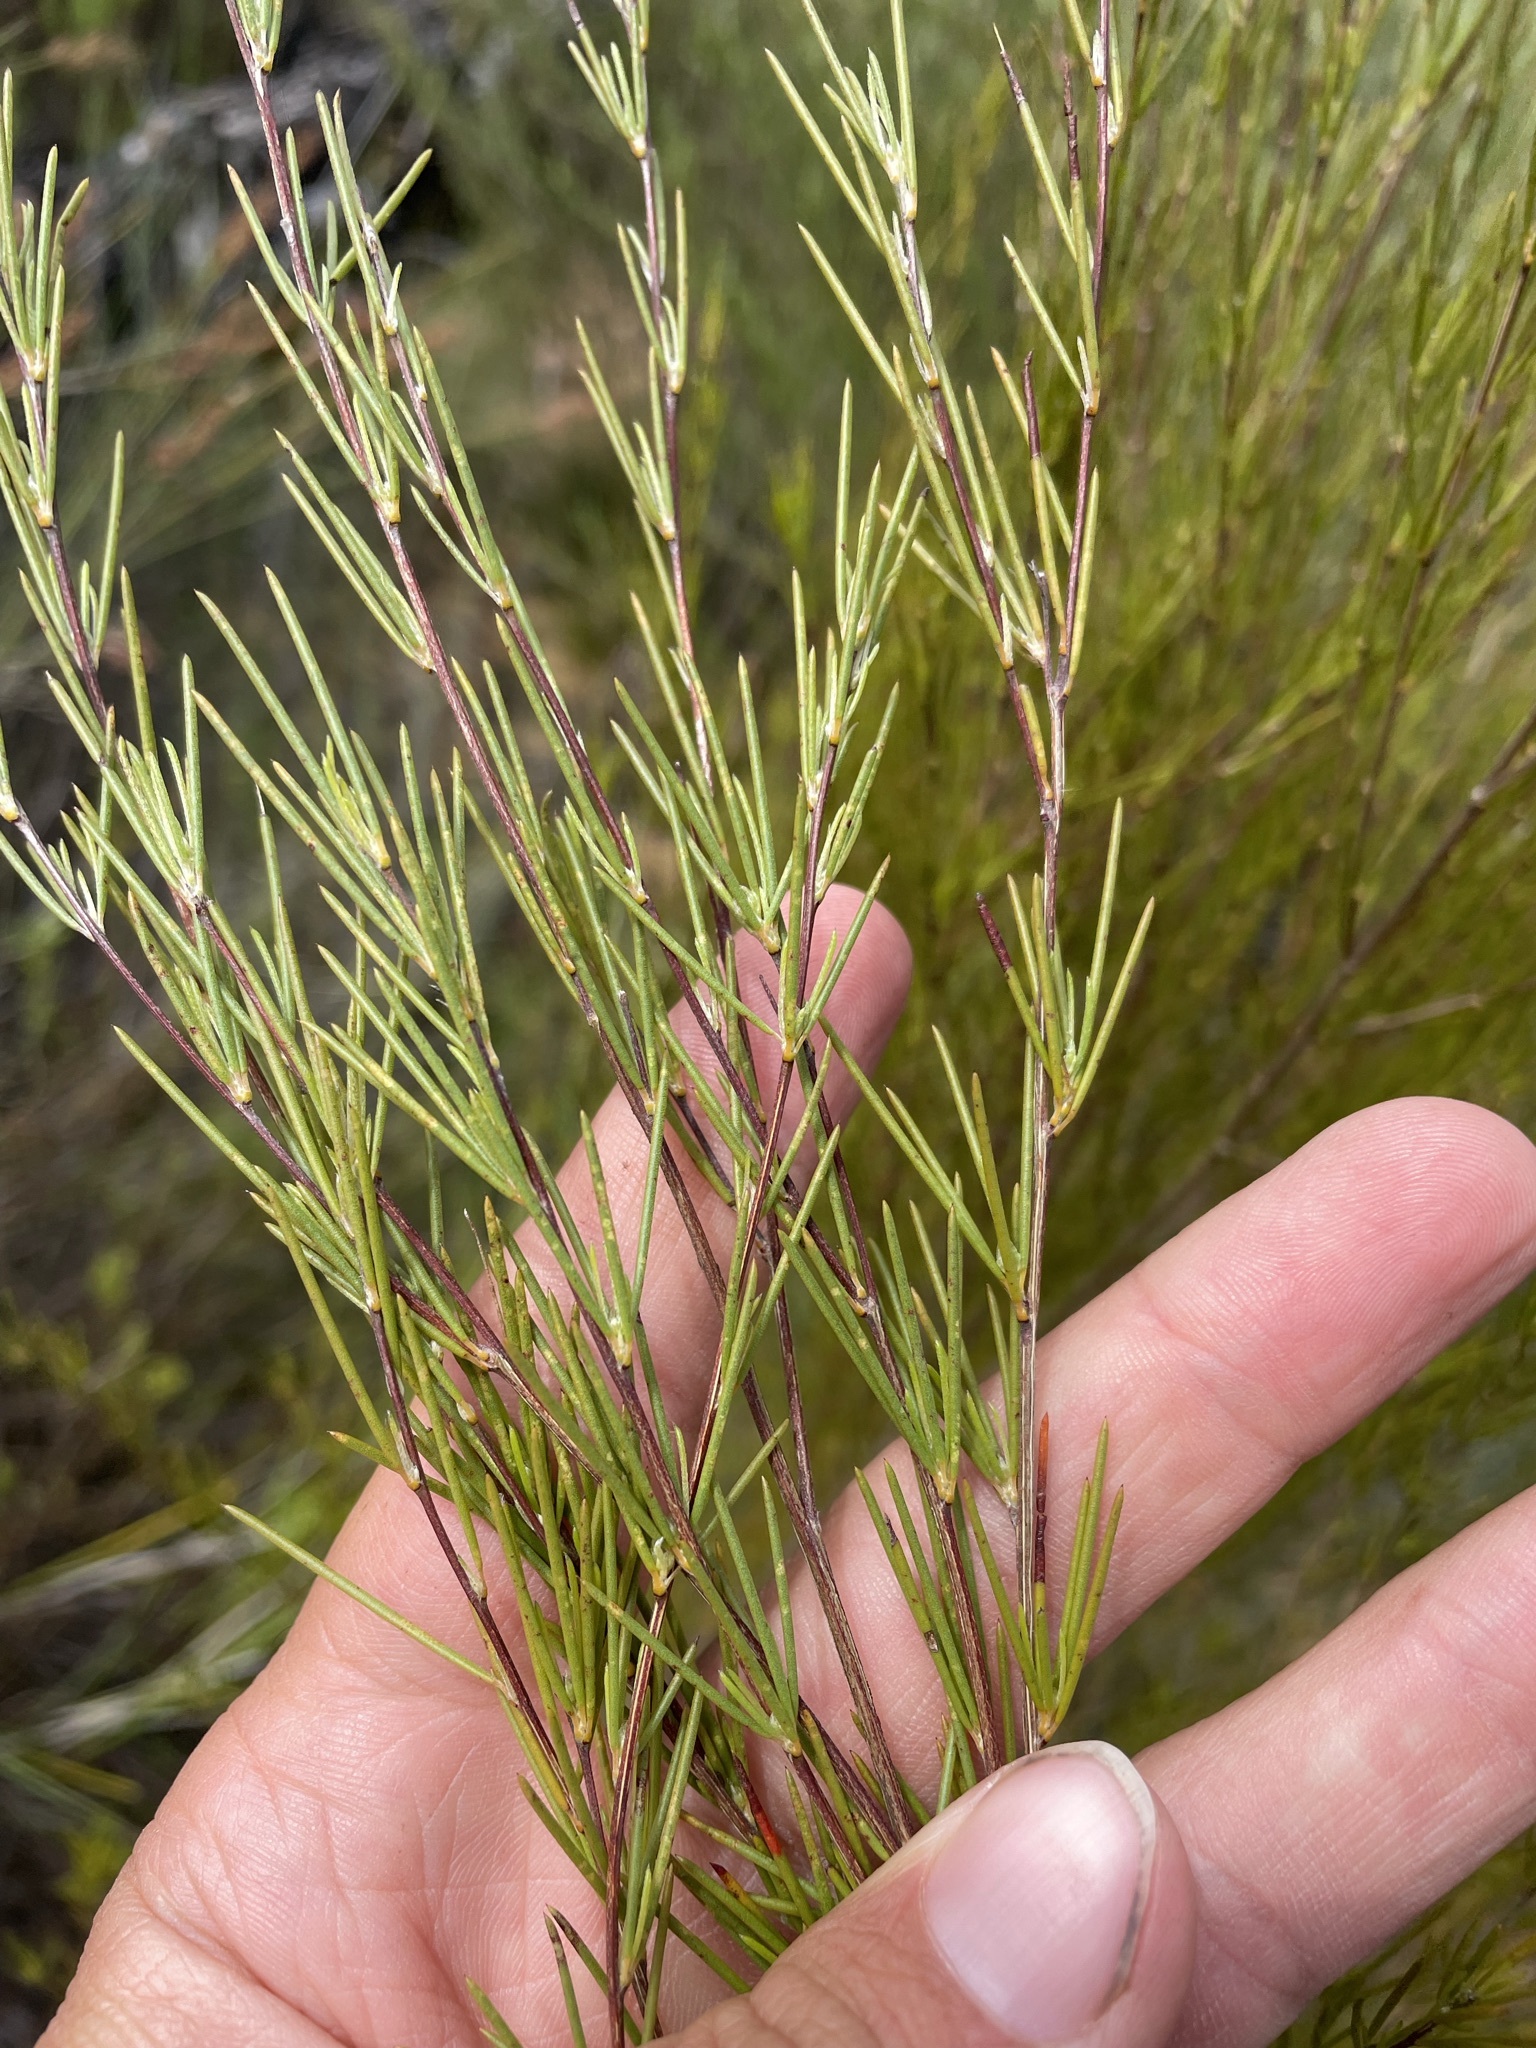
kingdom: Plantae
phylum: Tracheophyta
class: Magnoliopsida
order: Fabales
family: Fabaceae
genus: Aspalathus
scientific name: Aspalathus linearis
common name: Rooibos-tea
